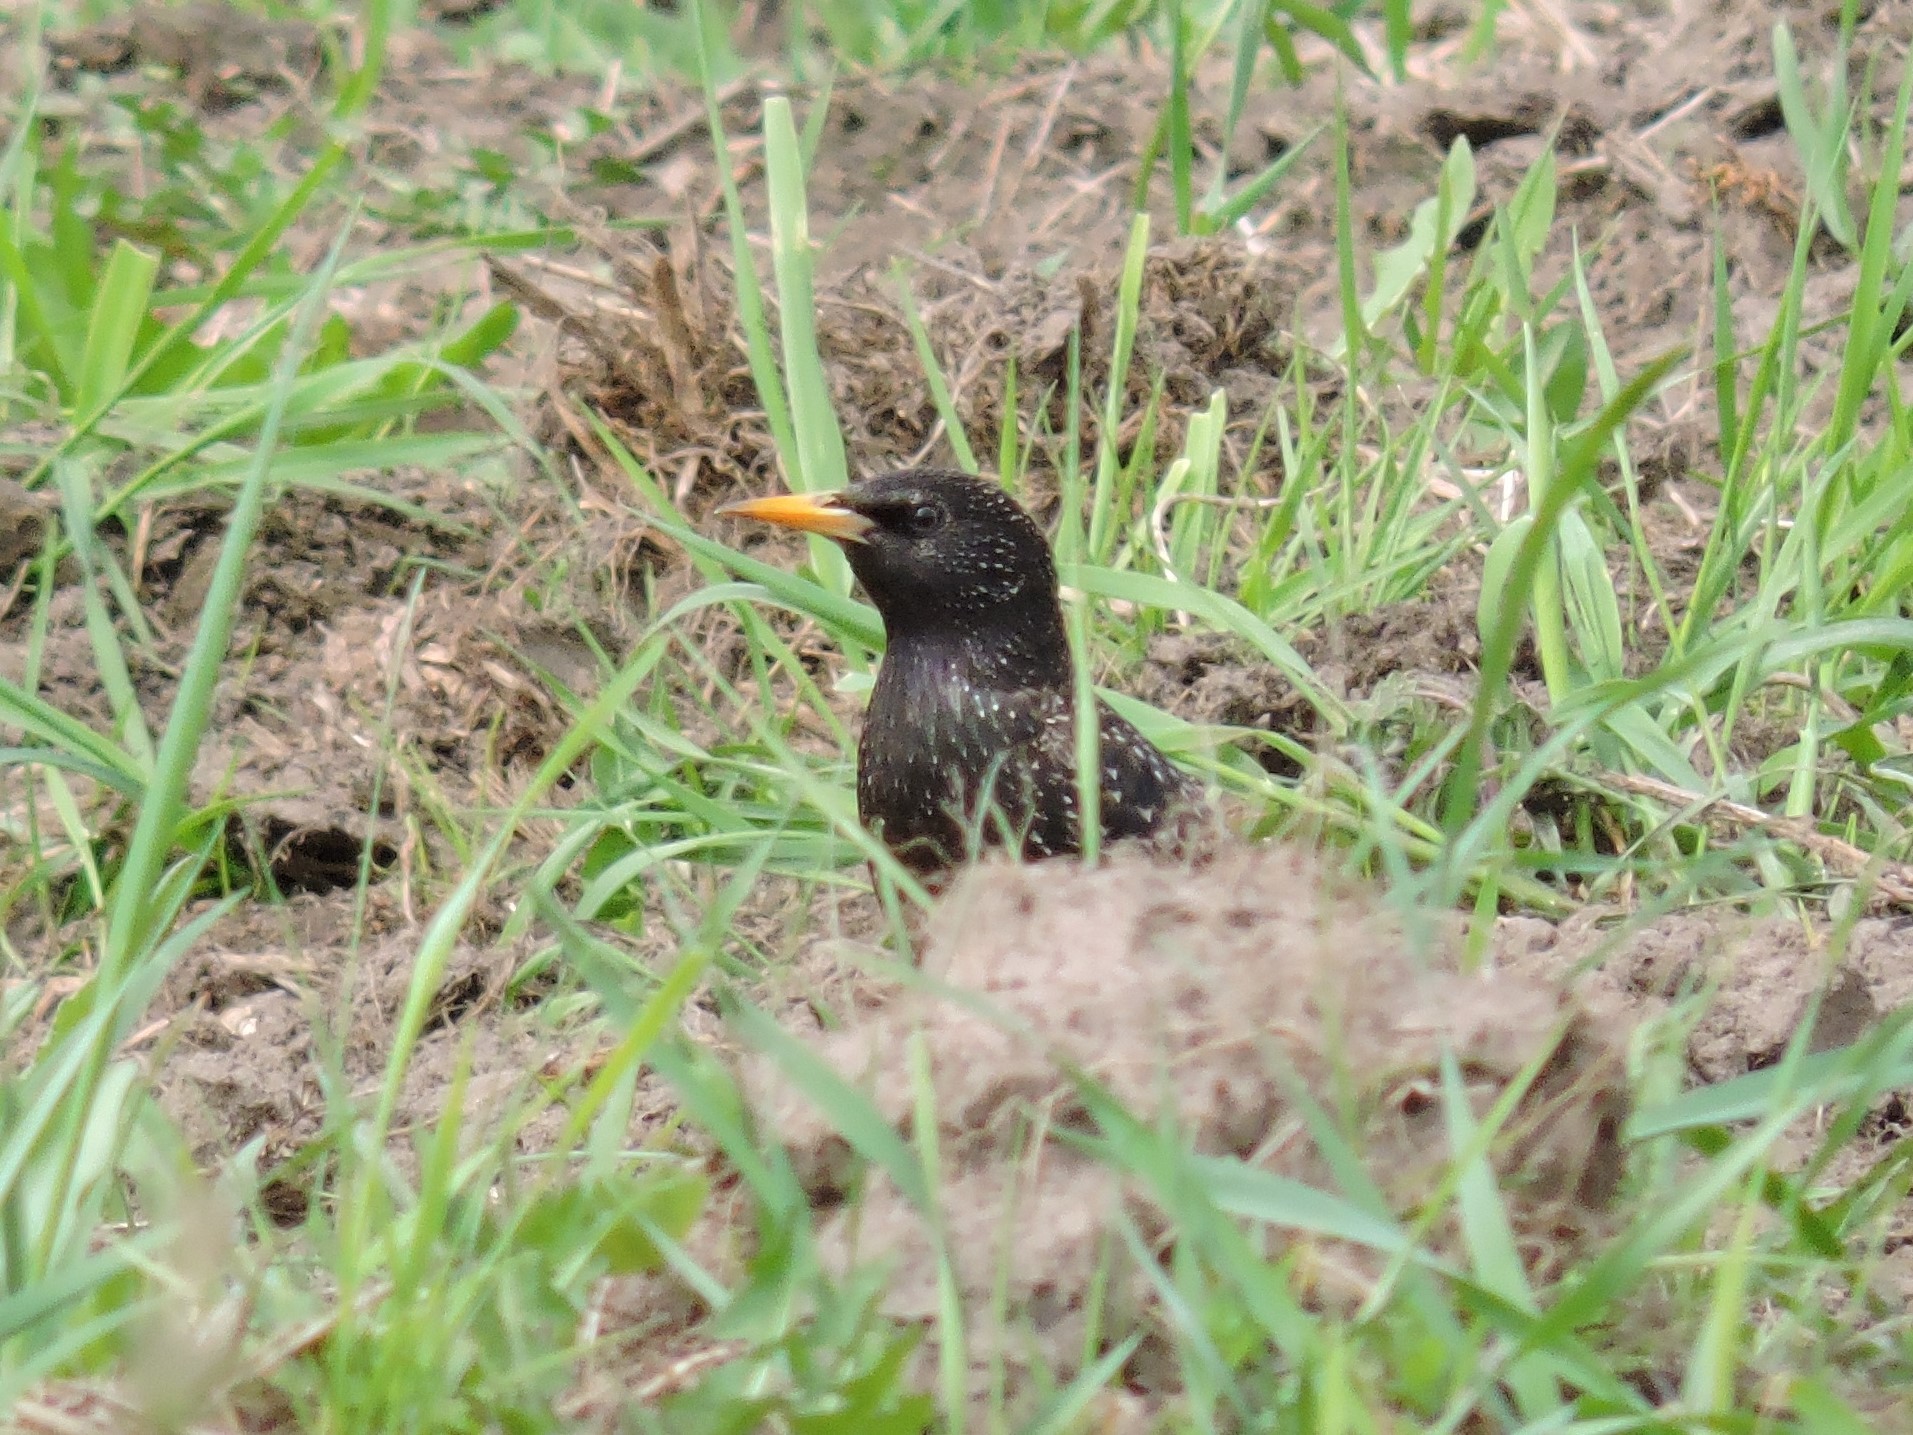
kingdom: Animalia
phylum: Chordata
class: Aves
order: Passeriformes
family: Sturnidae
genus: Sturnus
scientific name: Sturnus vulgaris
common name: Common starling
